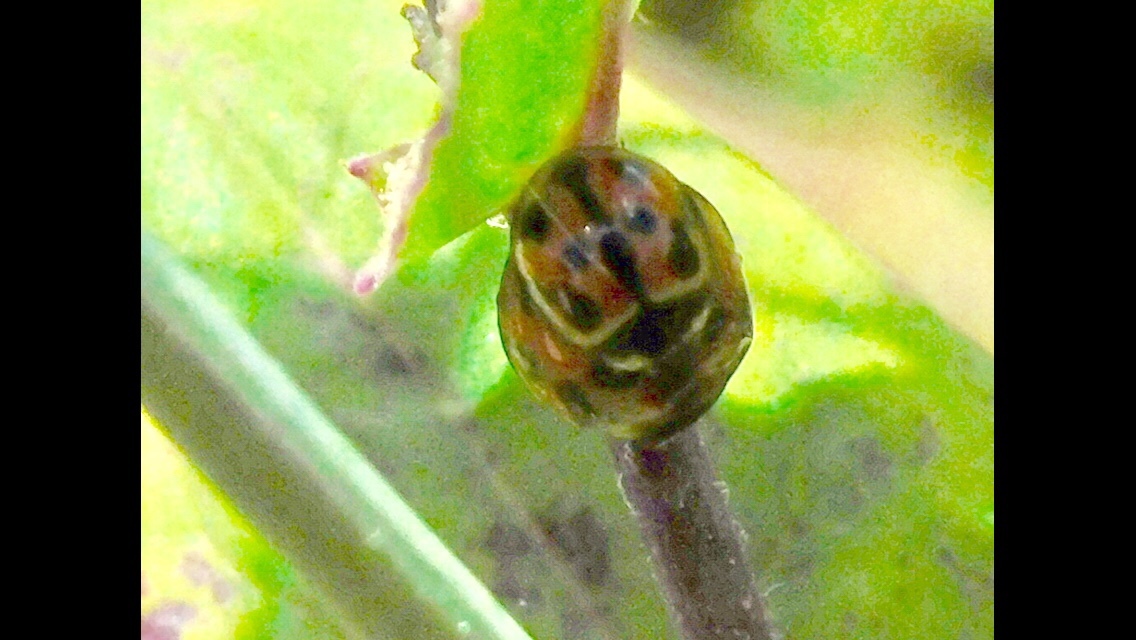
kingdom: Animalia
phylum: Arthropoda
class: Insecta
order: Coleoptera
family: Coccinellidae
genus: Coelophora
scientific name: Coelophora inaequalis
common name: Common australian lady beetle
